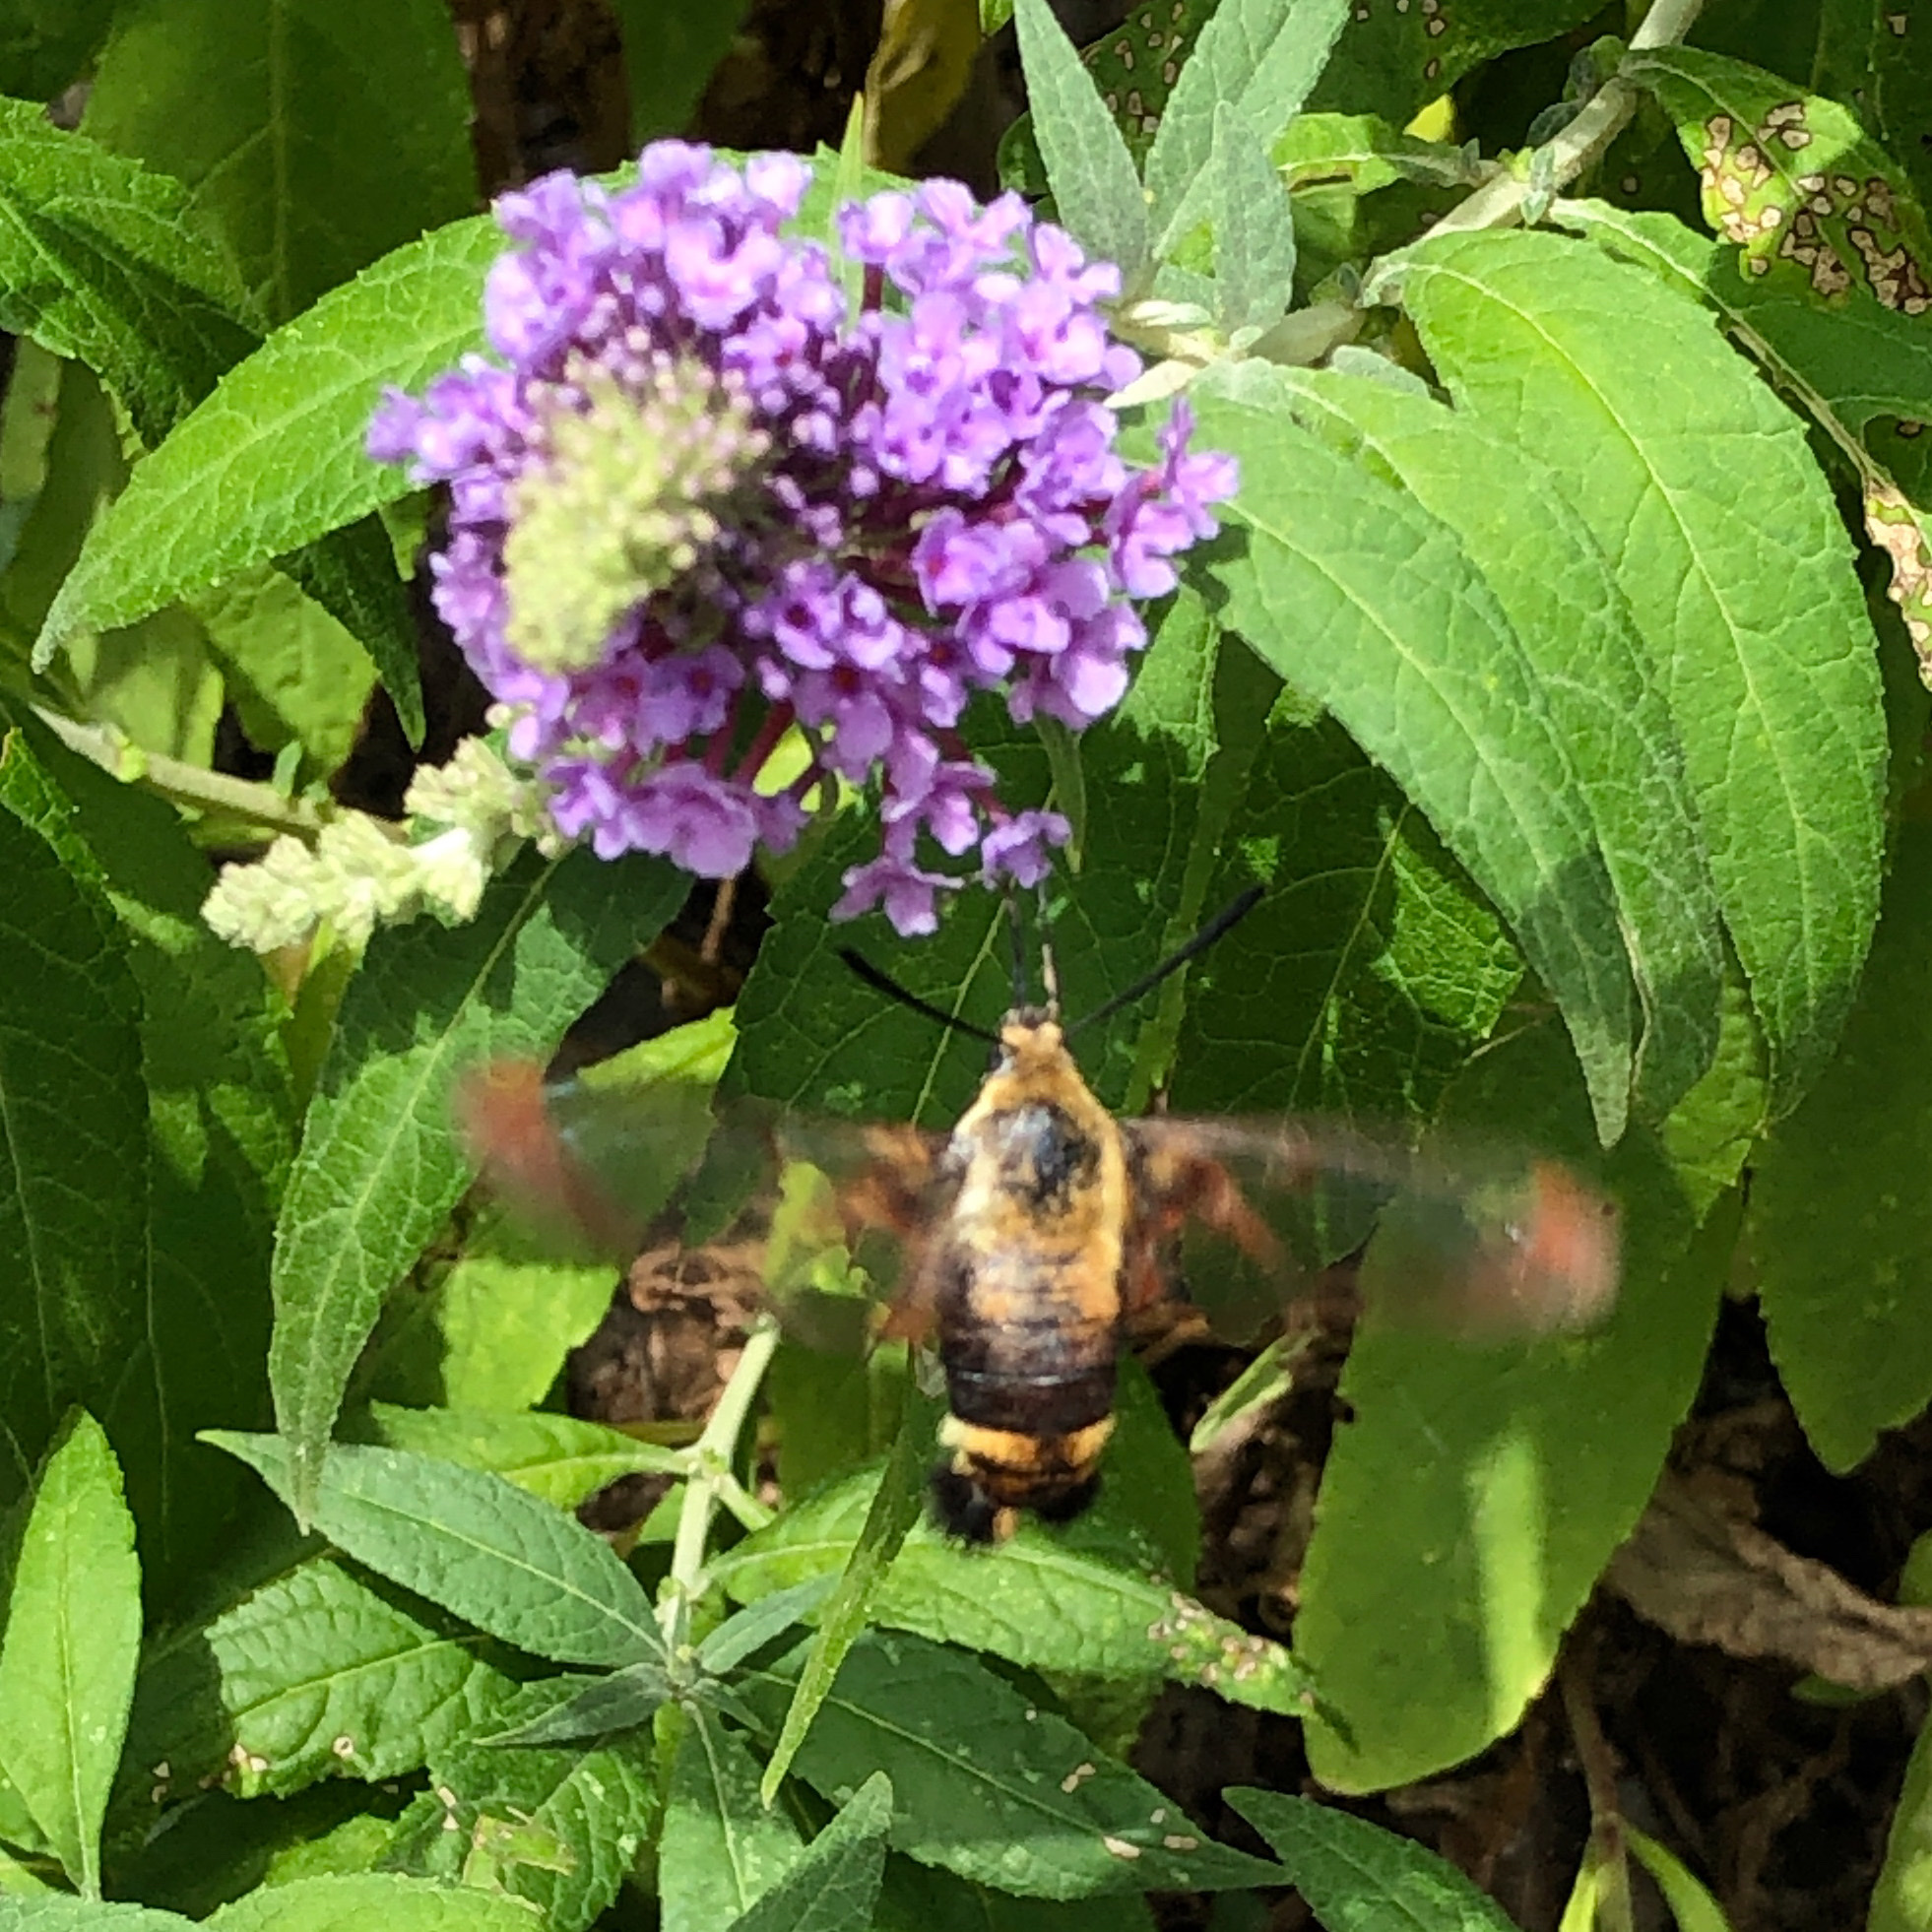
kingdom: Animalia
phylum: Arthropoda
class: Insecta
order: Lepidoptera
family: Sphingidae
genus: Hemaris
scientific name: Hemaris diffinis
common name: Bumblebee moth
